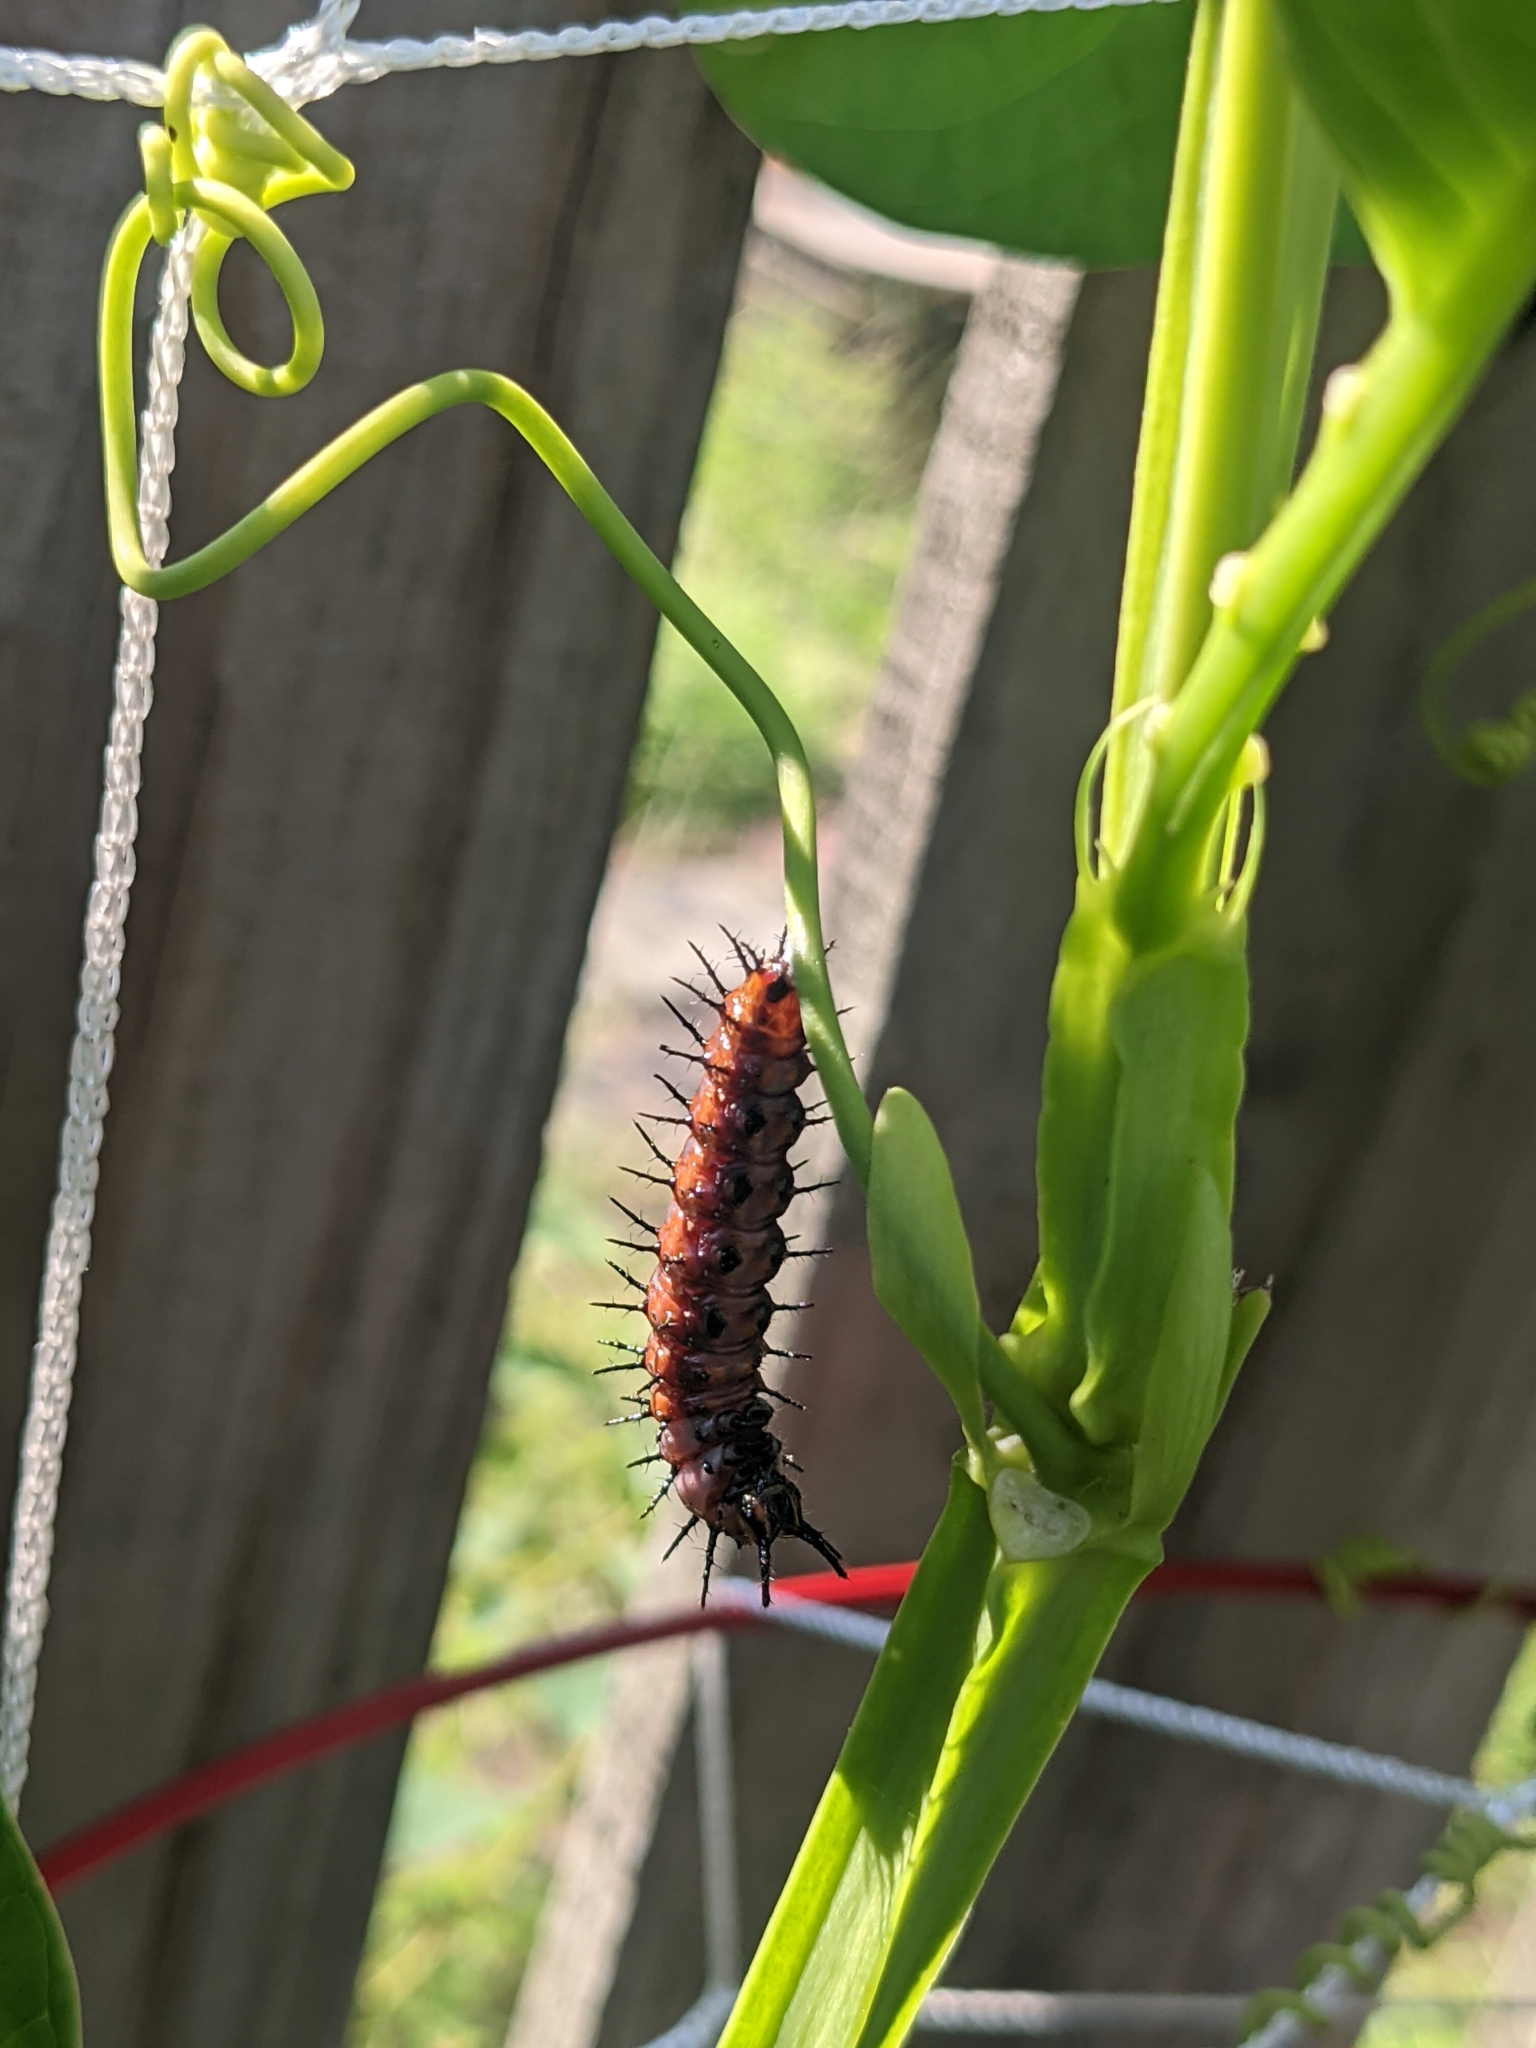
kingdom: Animalia
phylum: Arthropoda
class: Insecta
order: Lepidoptera
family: Nymphalidae
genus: Dione
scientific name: Dione vanillae
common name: Gulf fritillary
